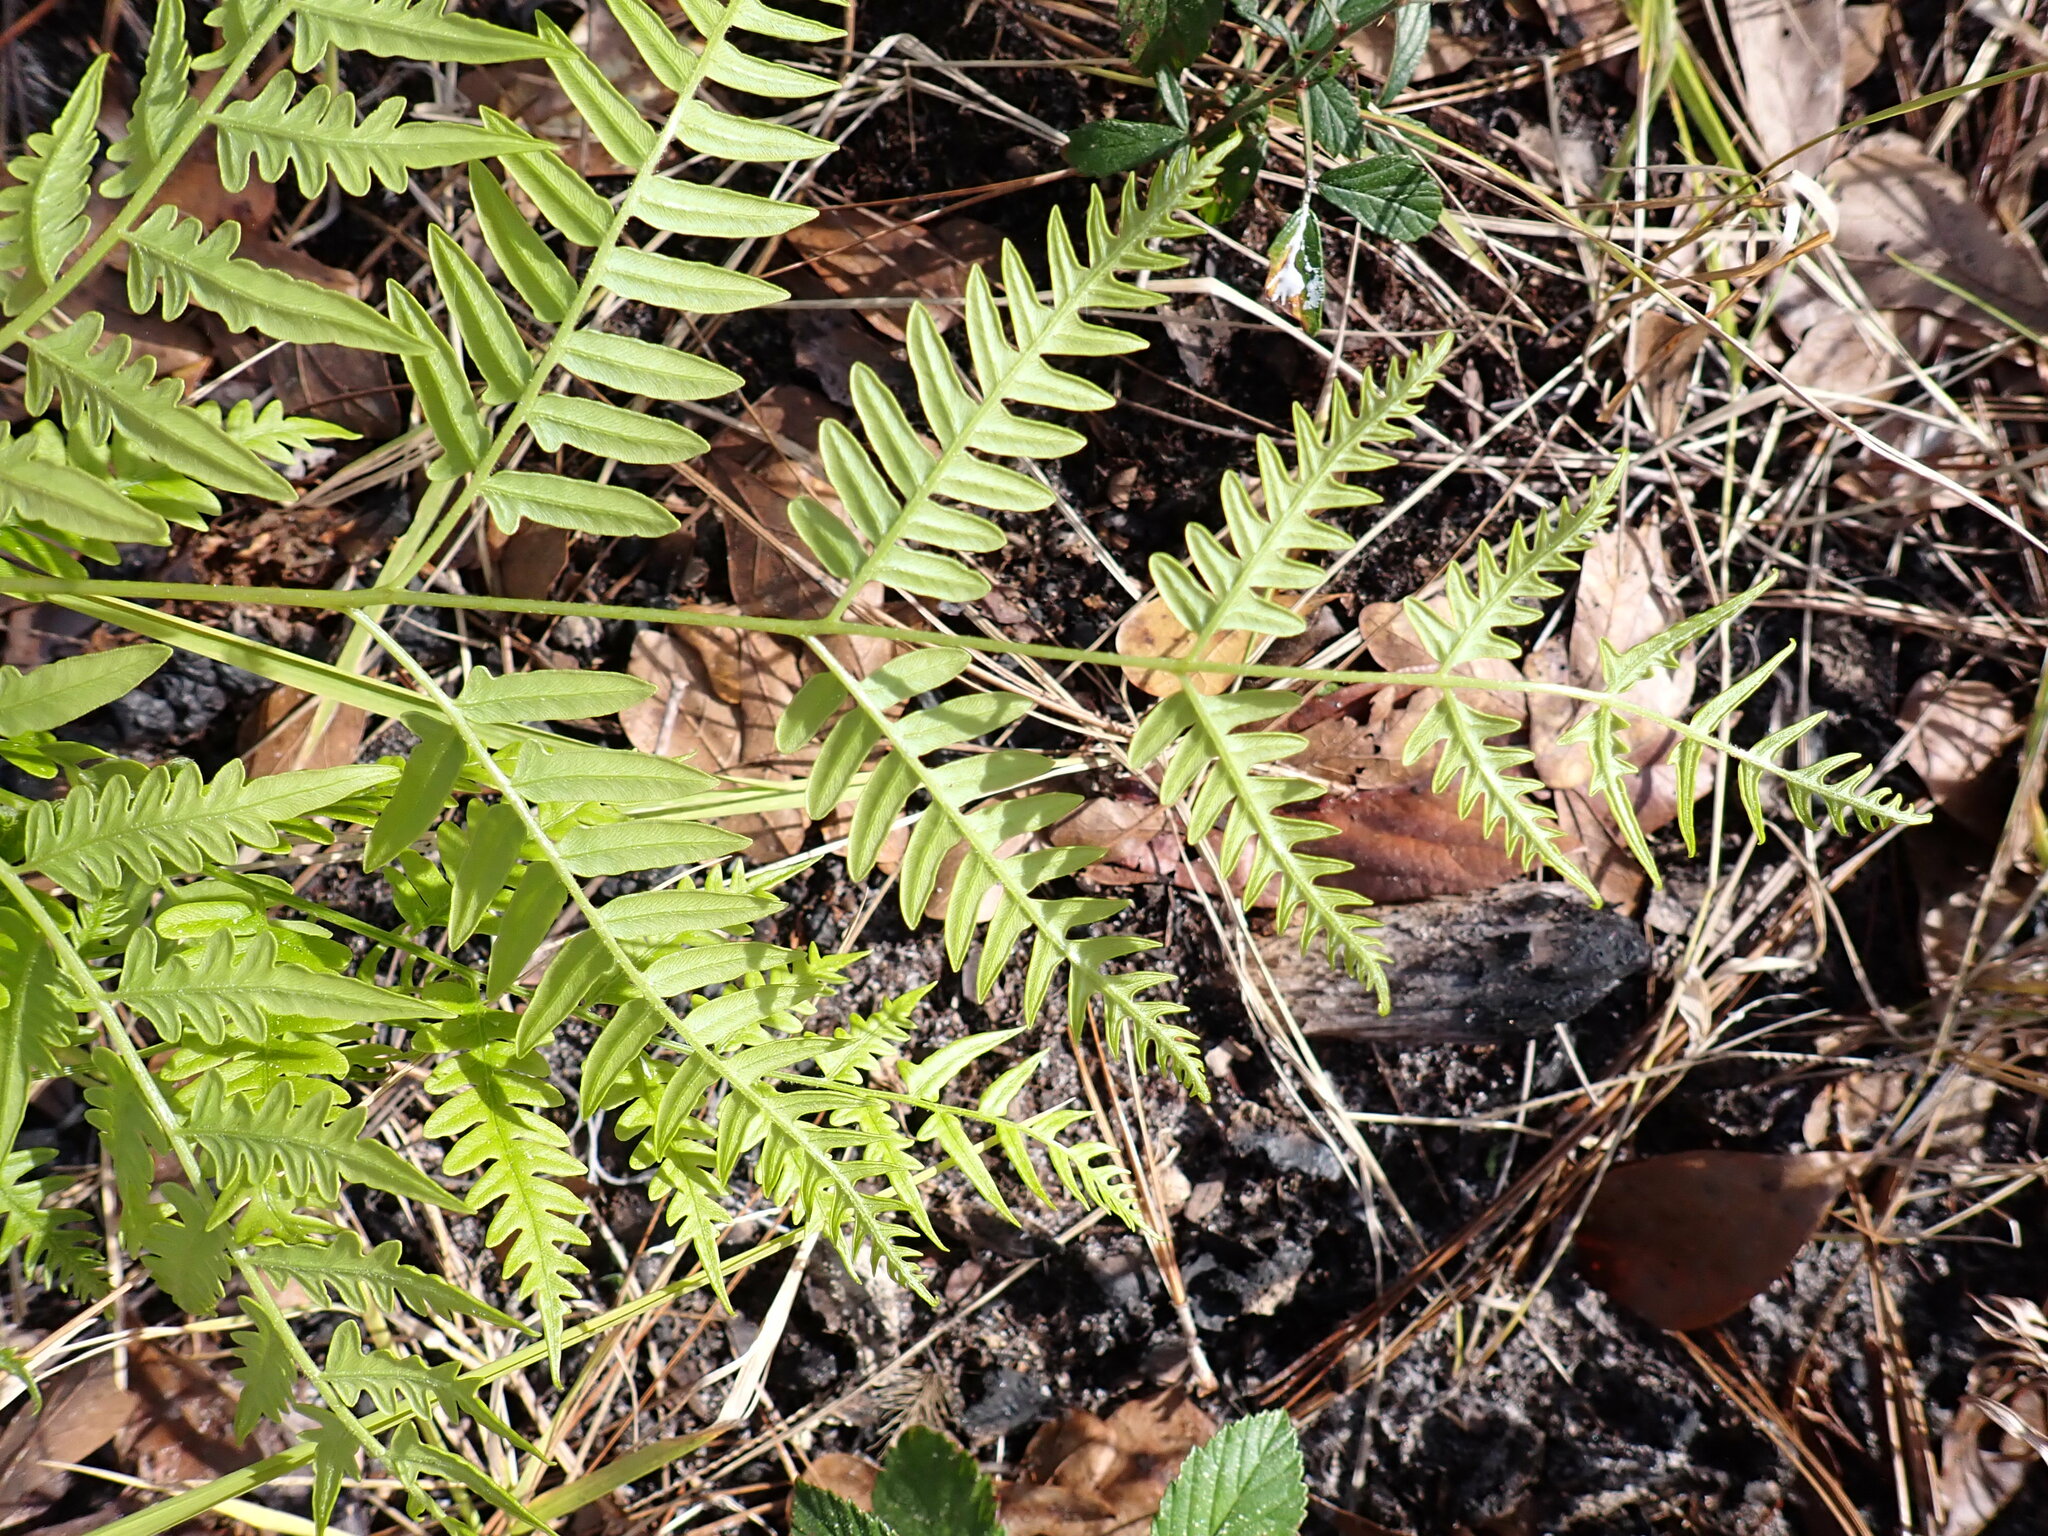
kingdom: Plantae
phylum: Tracheophyta
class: Polypodiopsida
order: Polypodiales
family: Dennstaedtiaceae
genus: Pteridium
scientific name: Pteridium
